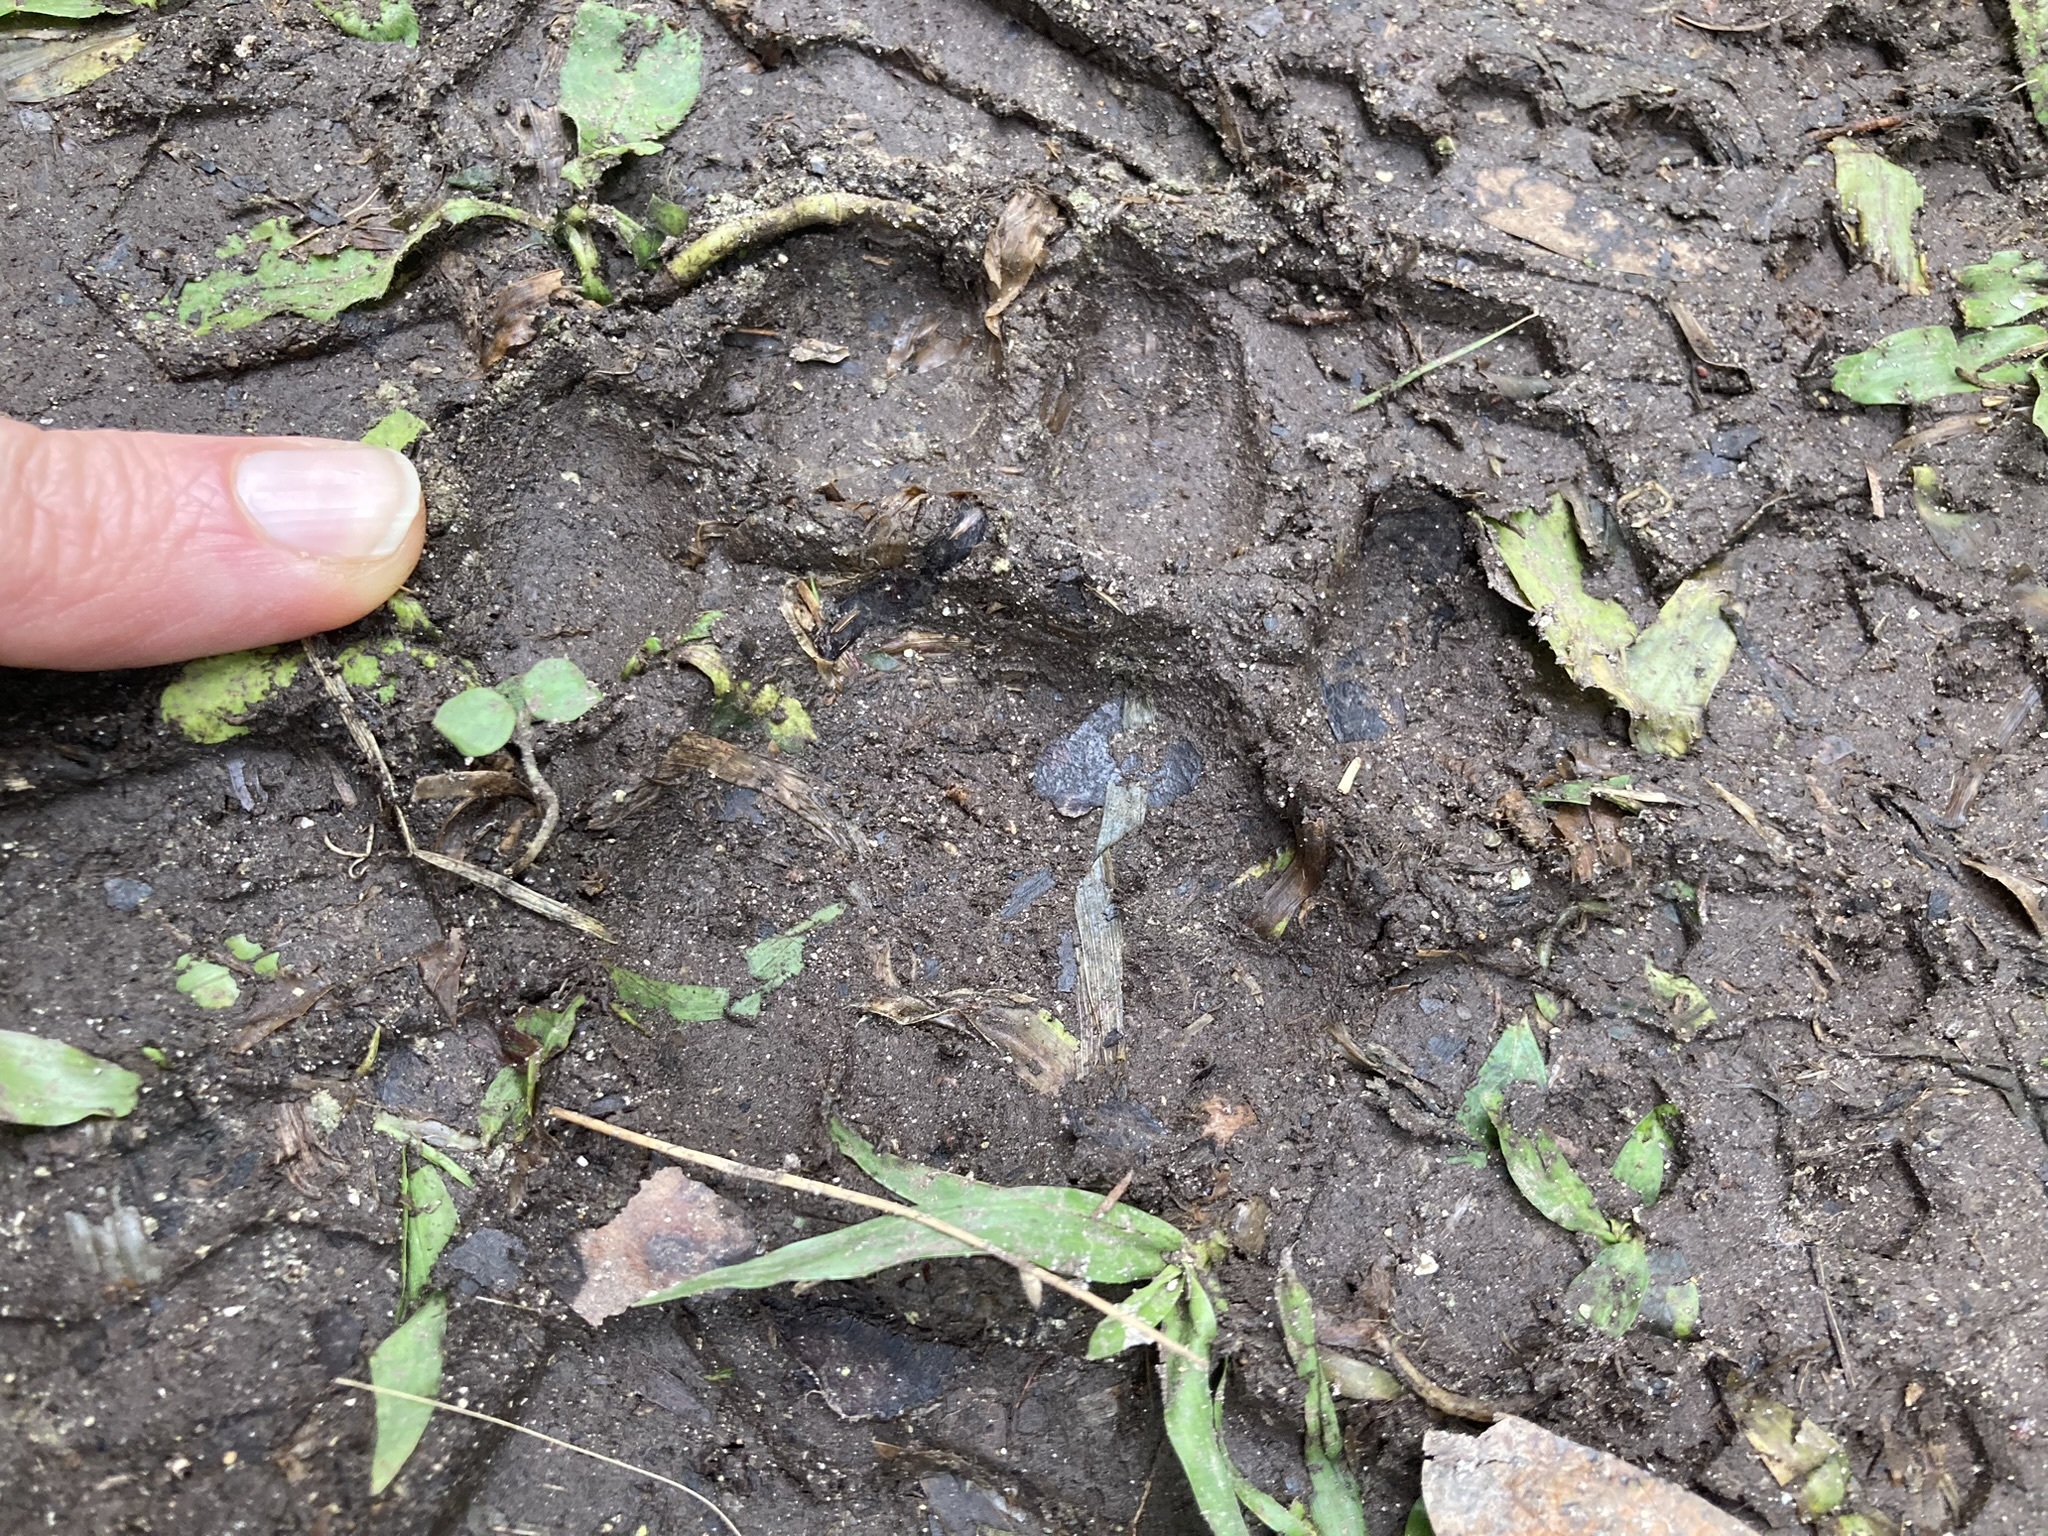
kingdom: Animalia
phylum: Chordata
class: Mammalia
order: Carnivora
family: Felidae
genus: Puma
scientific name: Puma concolor
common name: Puma
